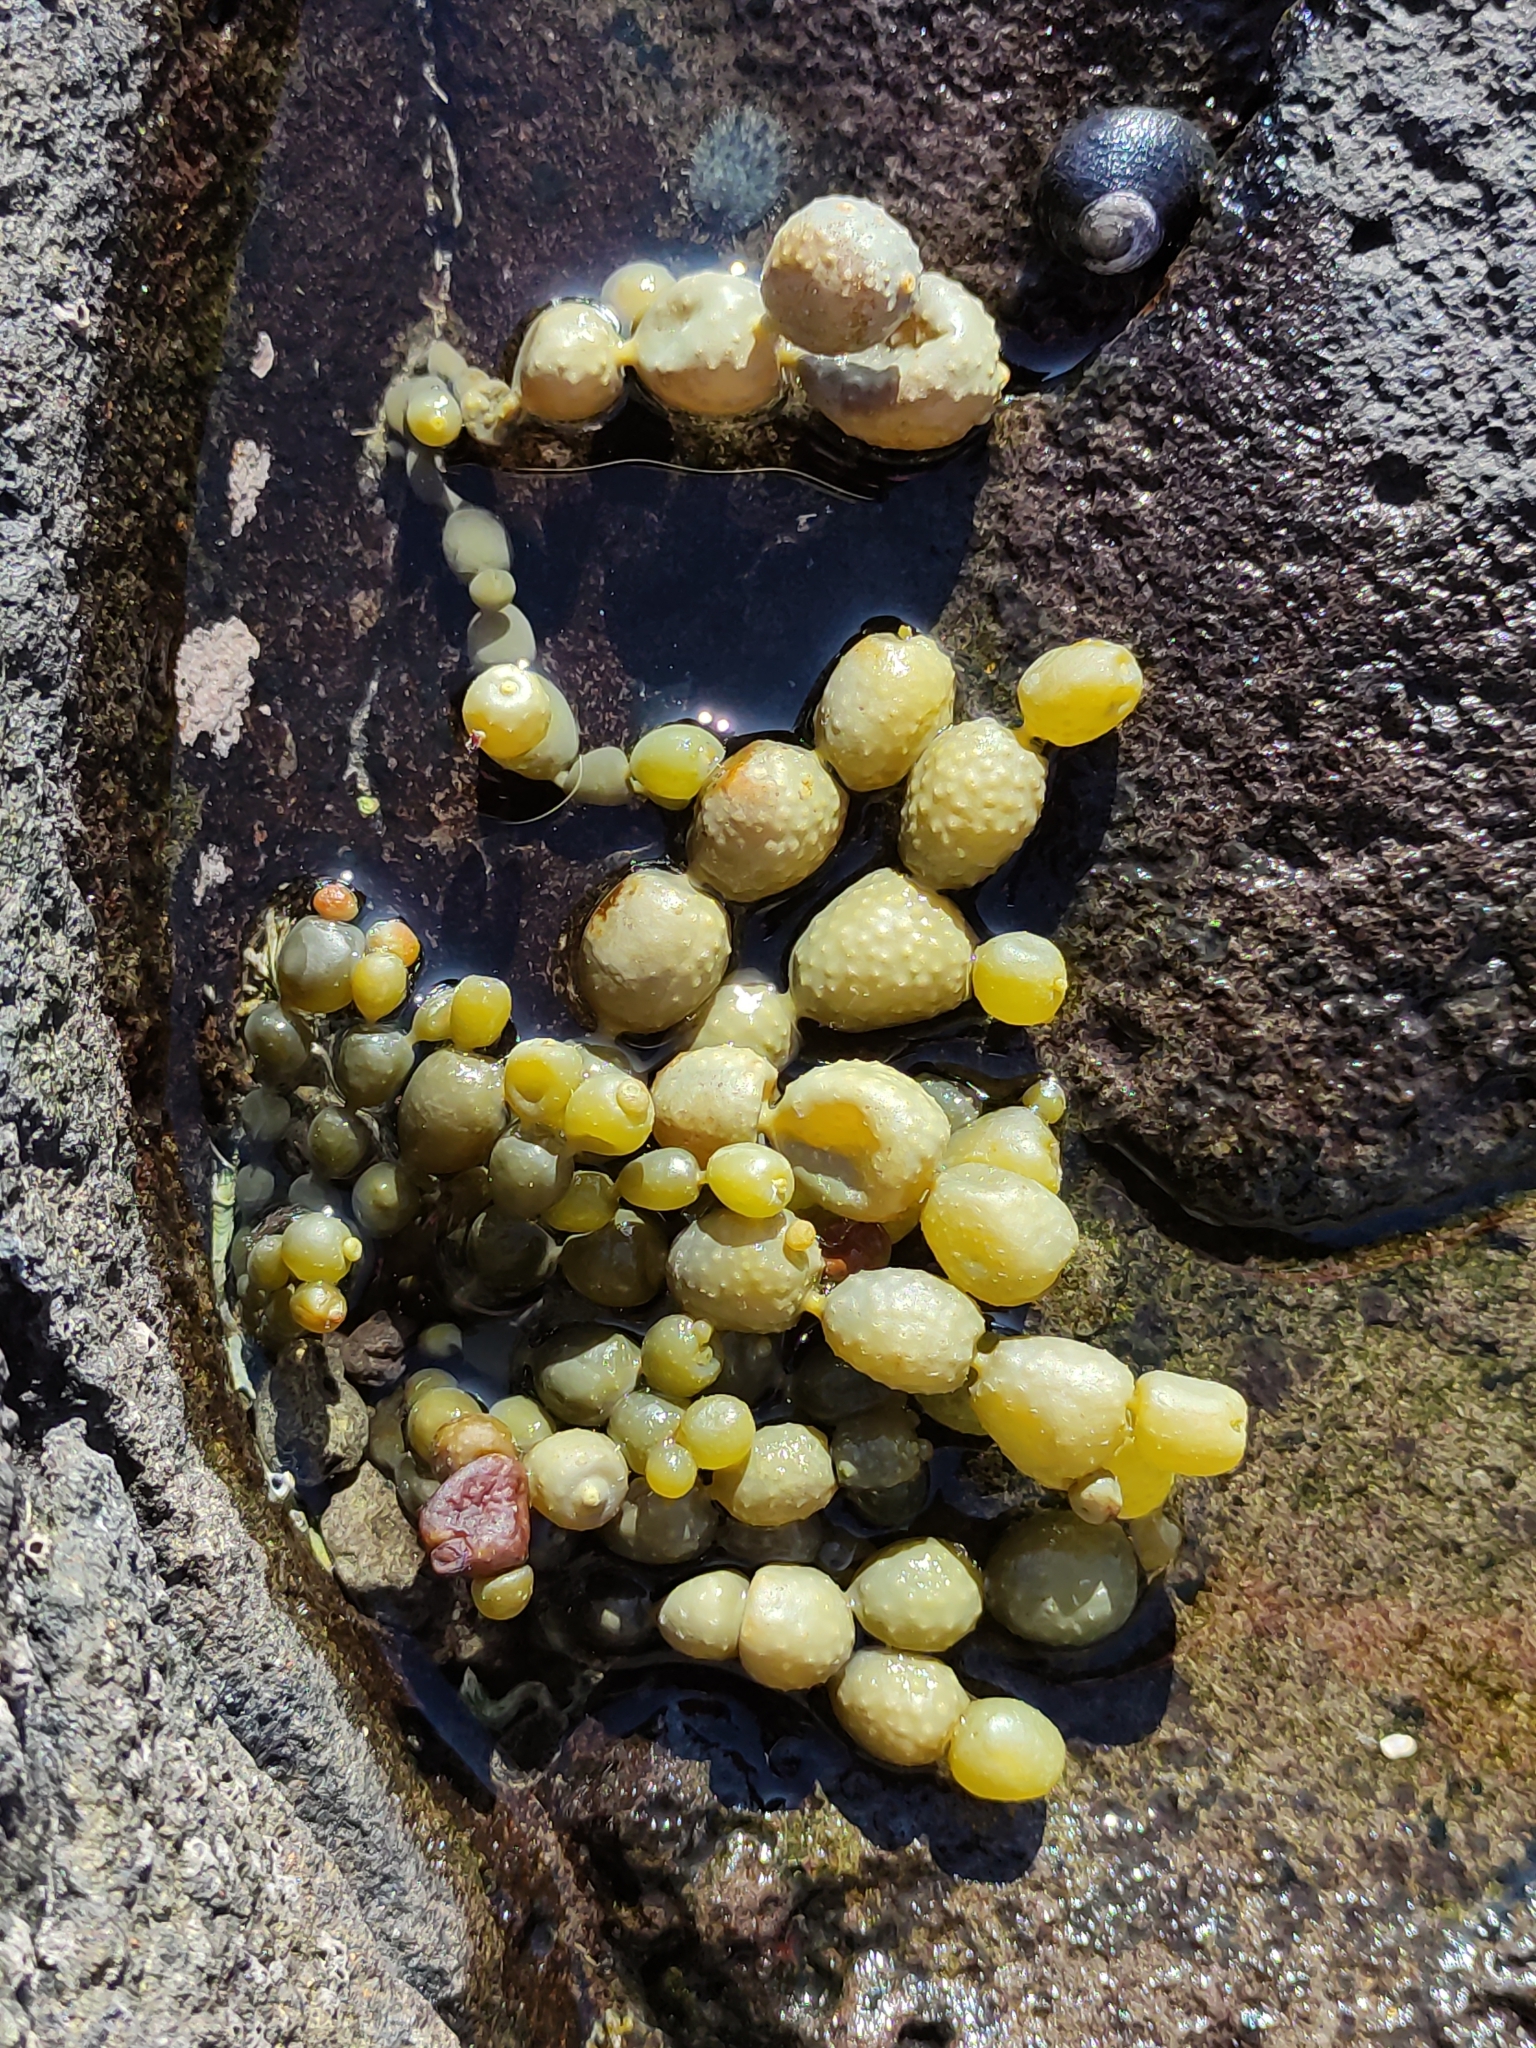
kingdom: Chromista
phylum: Ochrophyta
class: Phaeophyceae
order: Fucales
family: Hormosiraceae
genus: Hormosira
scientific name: Hormosira banksii
